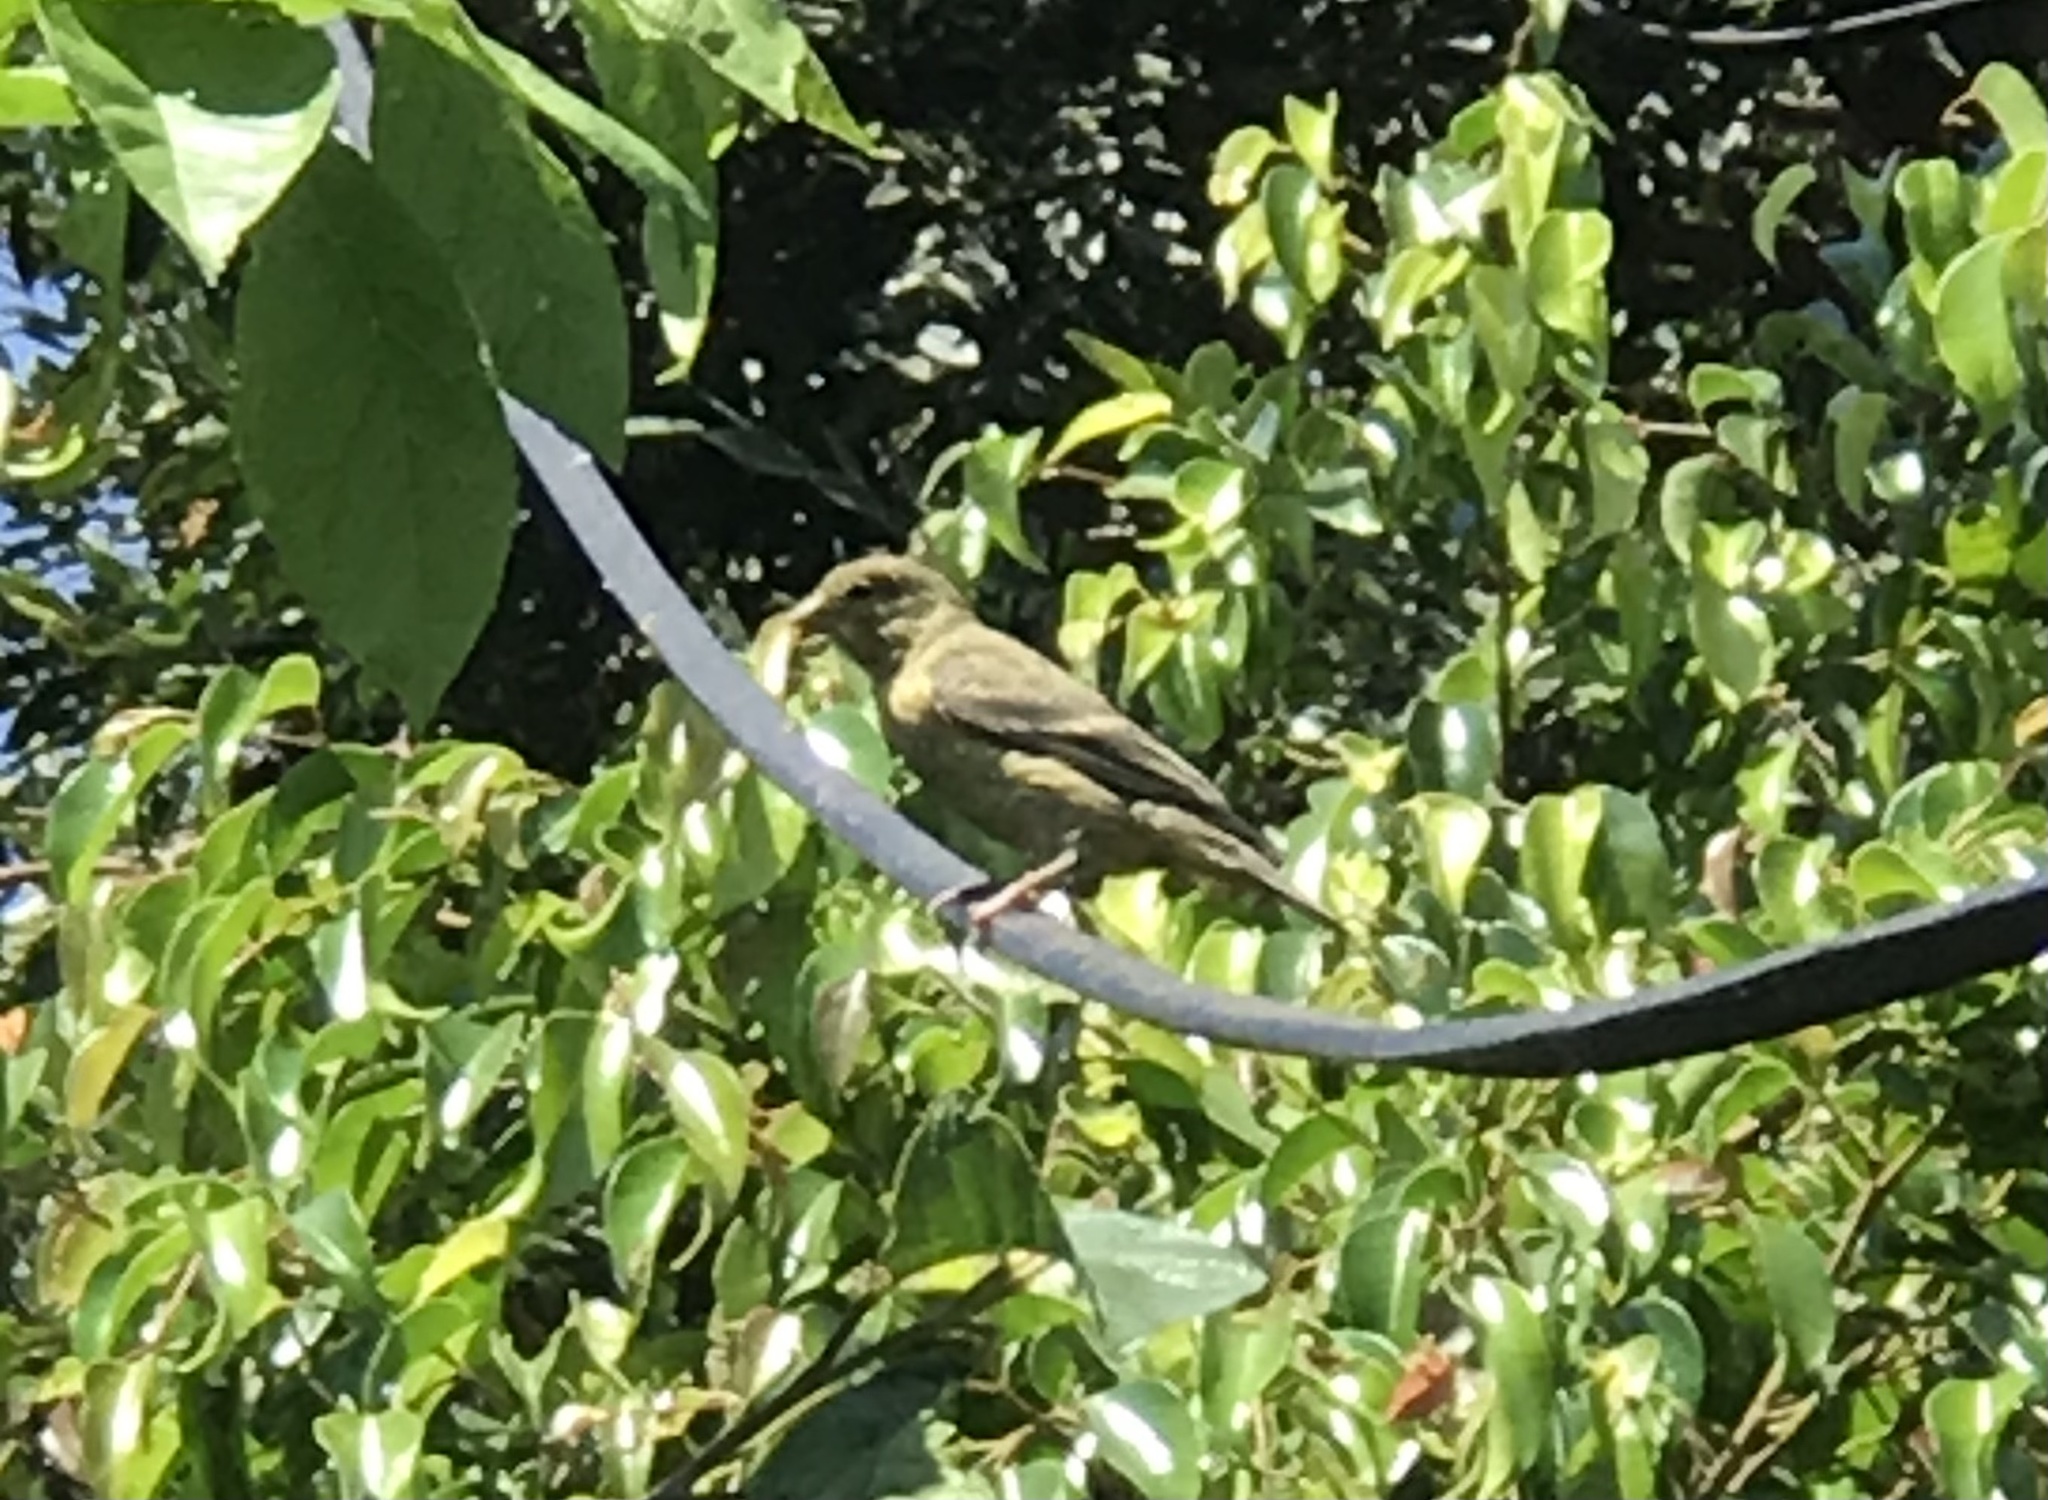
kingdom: Animalia
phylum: Chordata
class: Aves
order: Passeriformes
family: Fringillidae
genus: Spinus
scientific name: Spinus psaltria
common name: Lesser goldfinch
